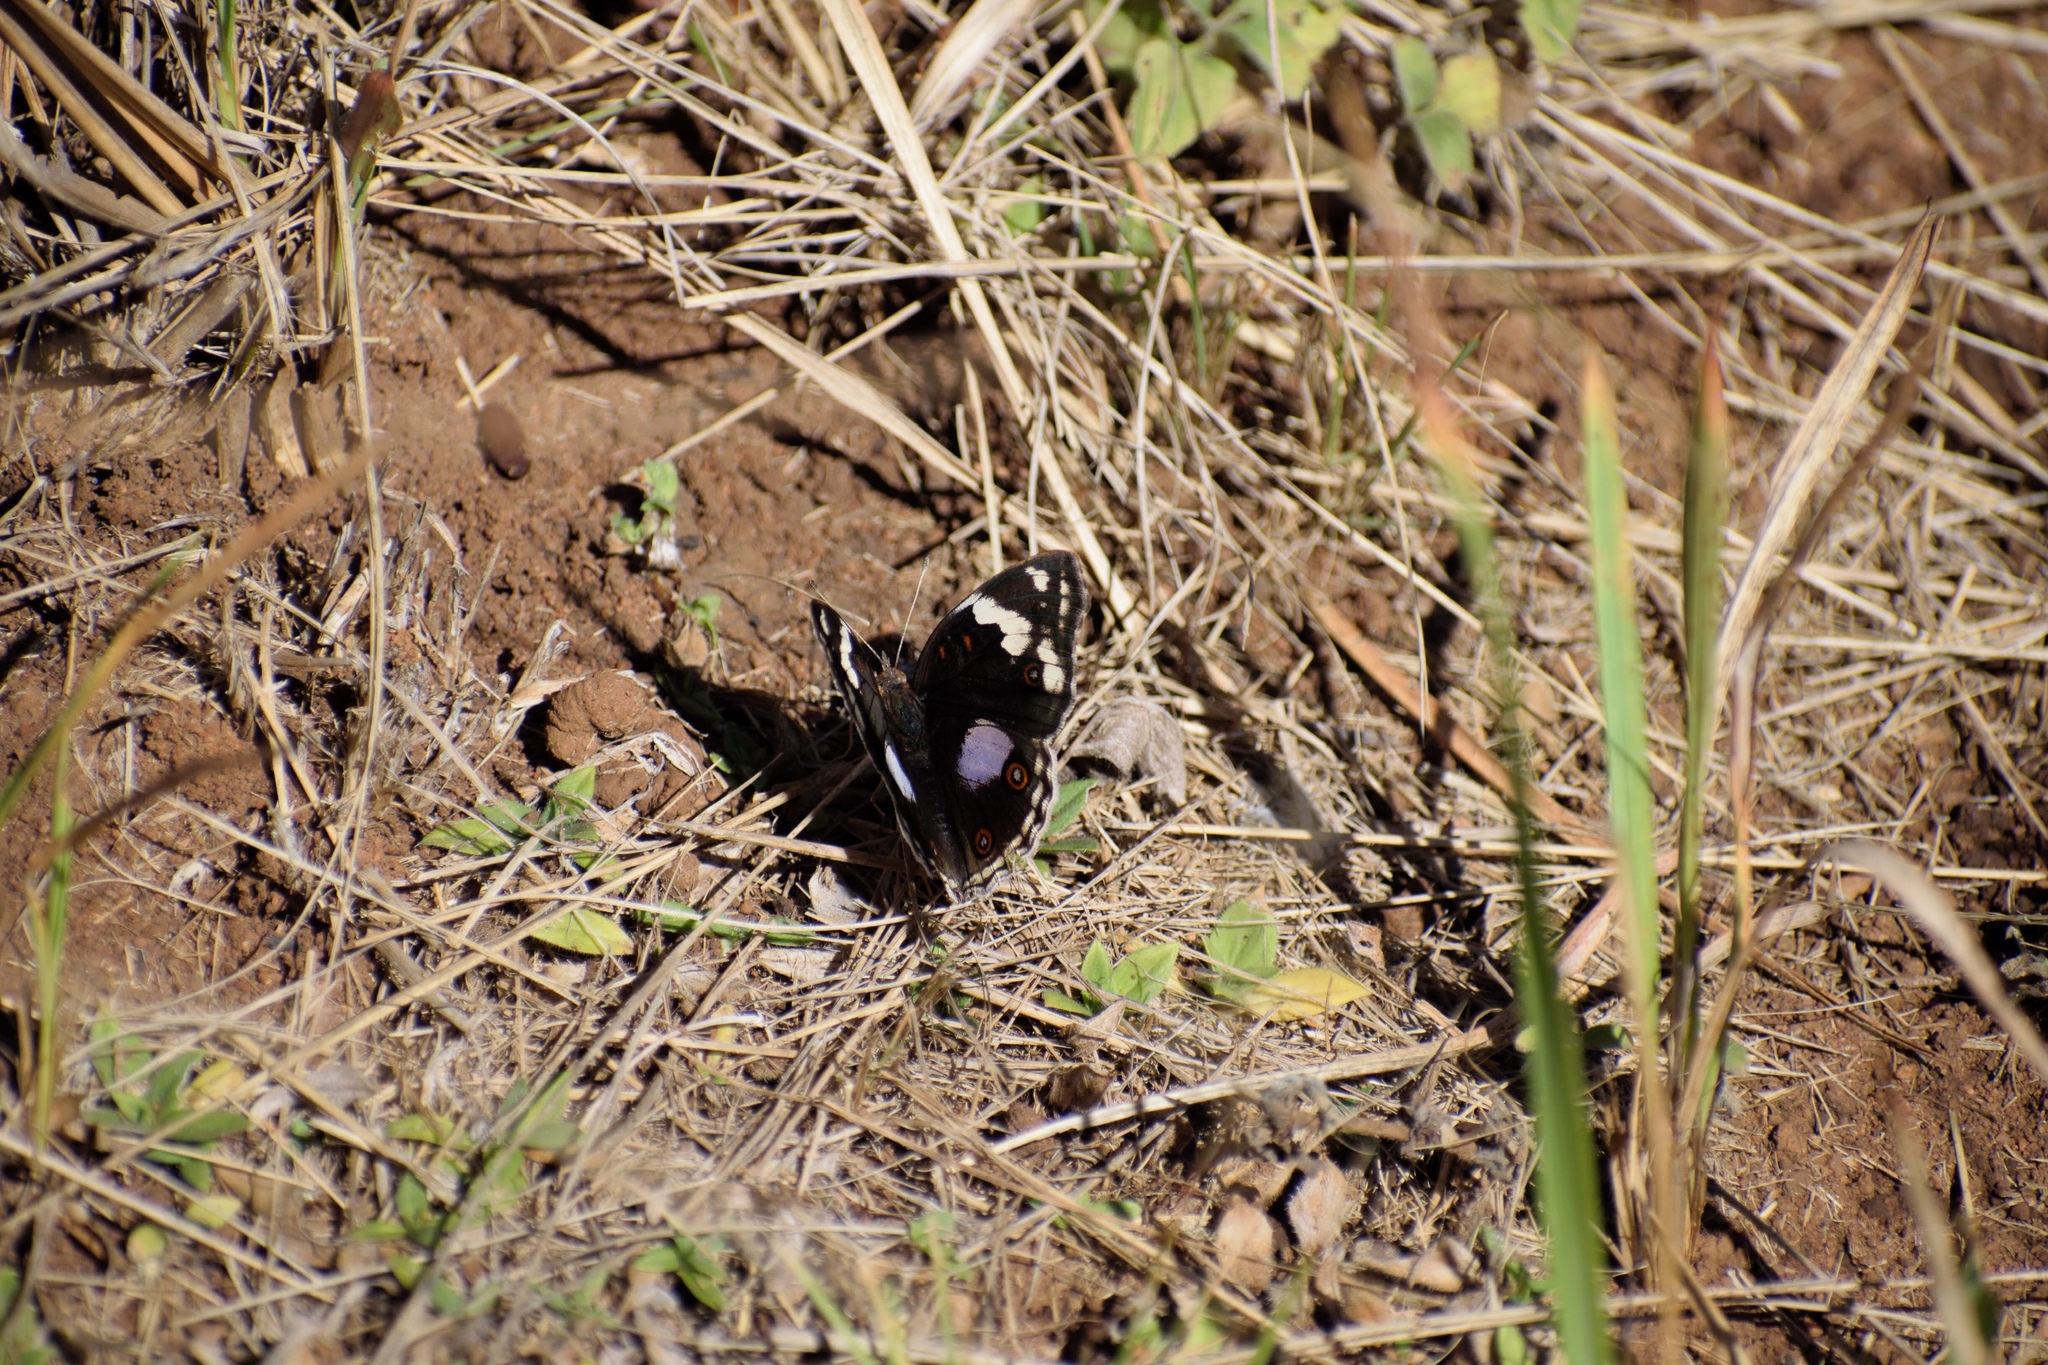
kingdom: Animalia
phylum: Arthropoda
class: Insecta
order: Lepidoptera
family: Nymphalidae
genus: Junonia
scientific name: Junonia oenone
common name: Dark blue pansy
